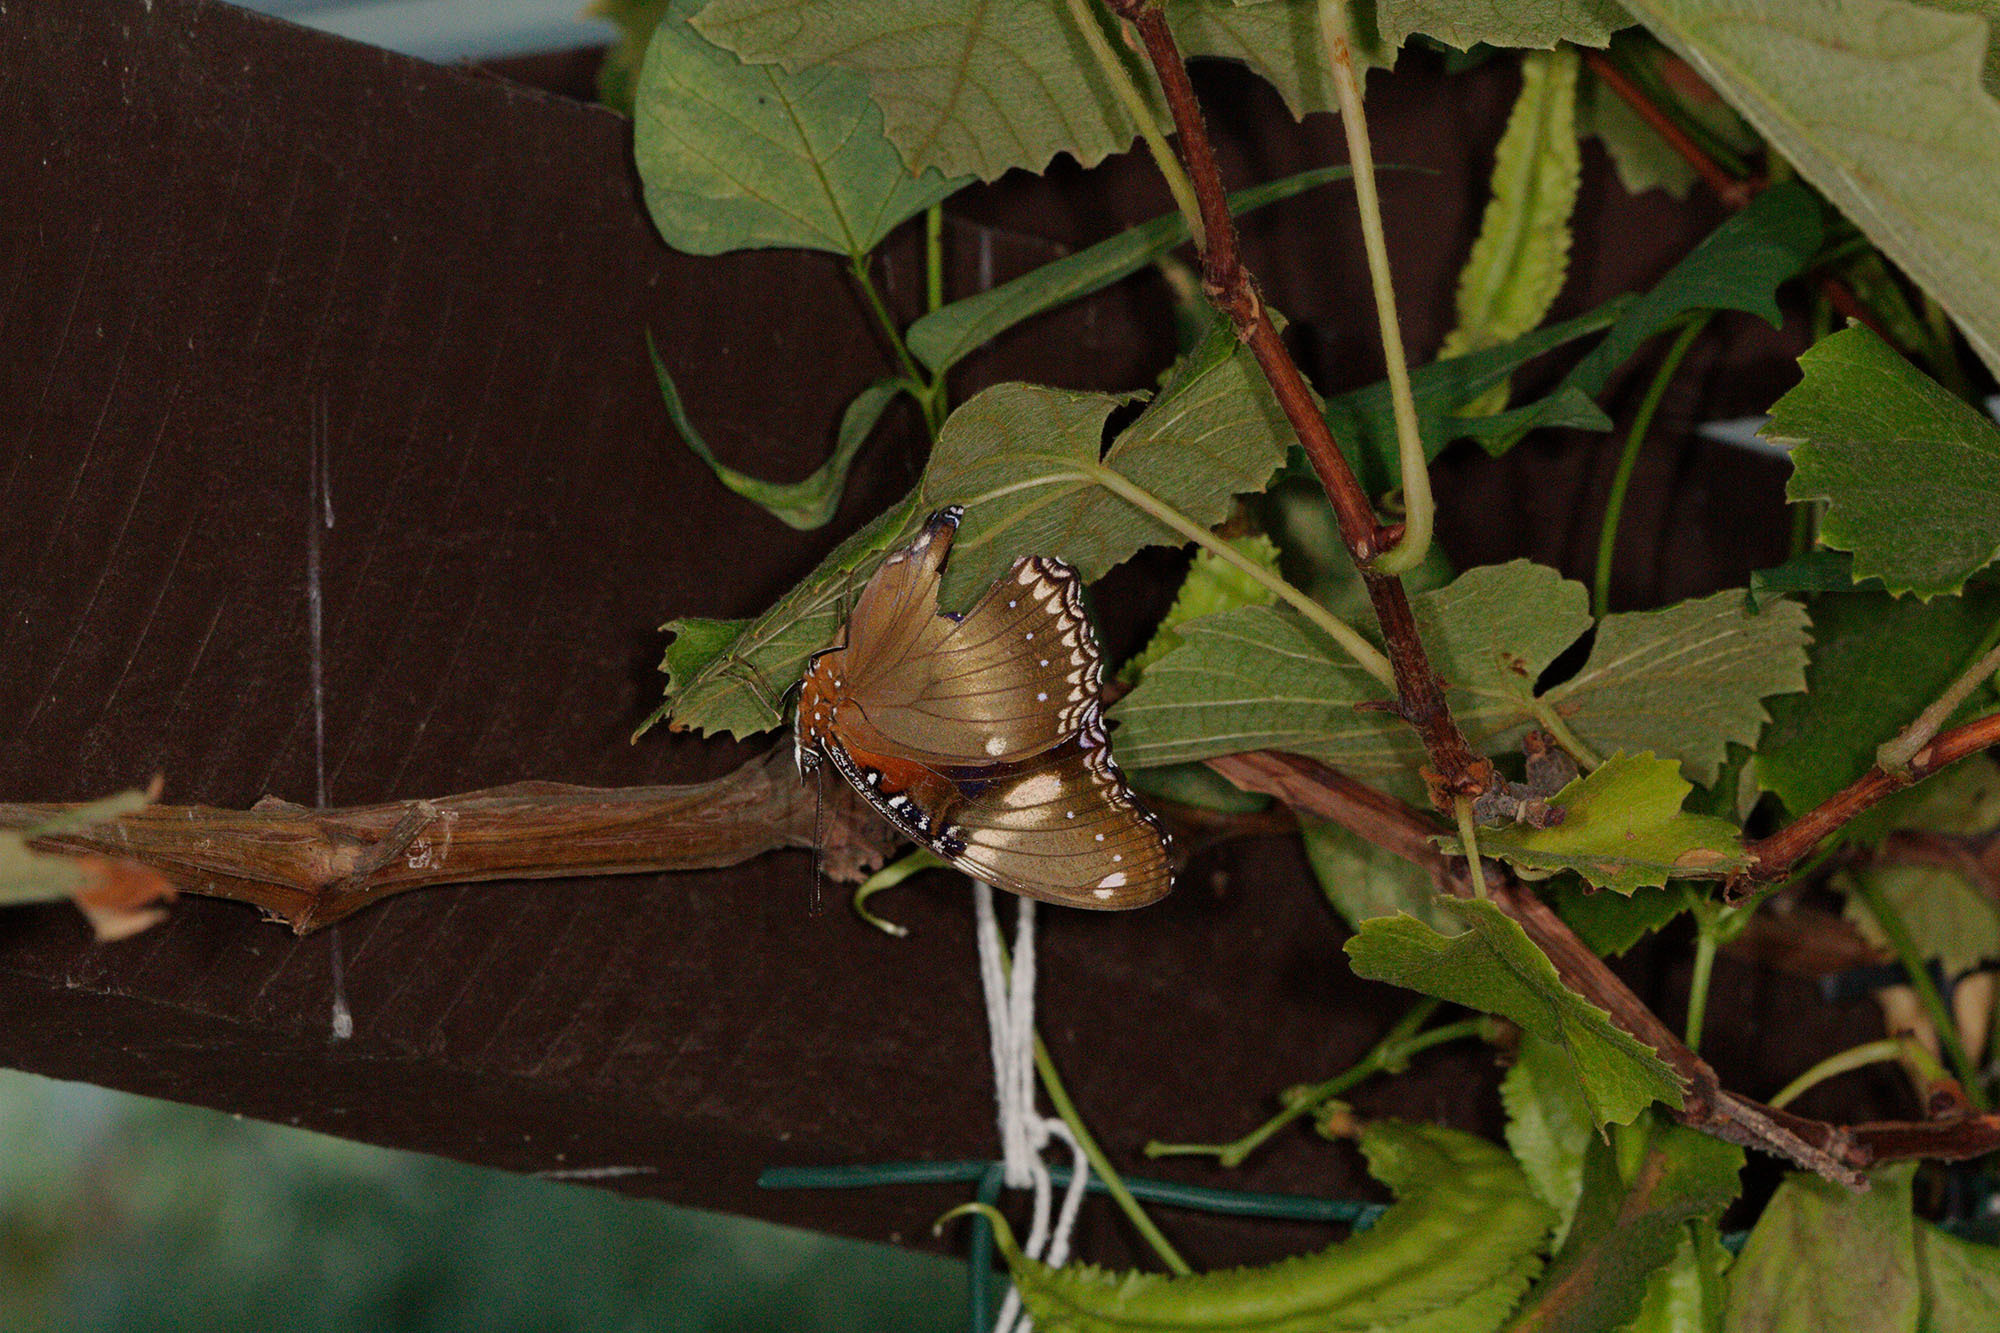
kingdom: Animalia
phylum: Arthropoda
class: Insecta
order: Lepidoptera
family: Nymphalidae
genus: Hypolimnas
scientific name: Hypolimnas bolina
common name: Great eggfly
